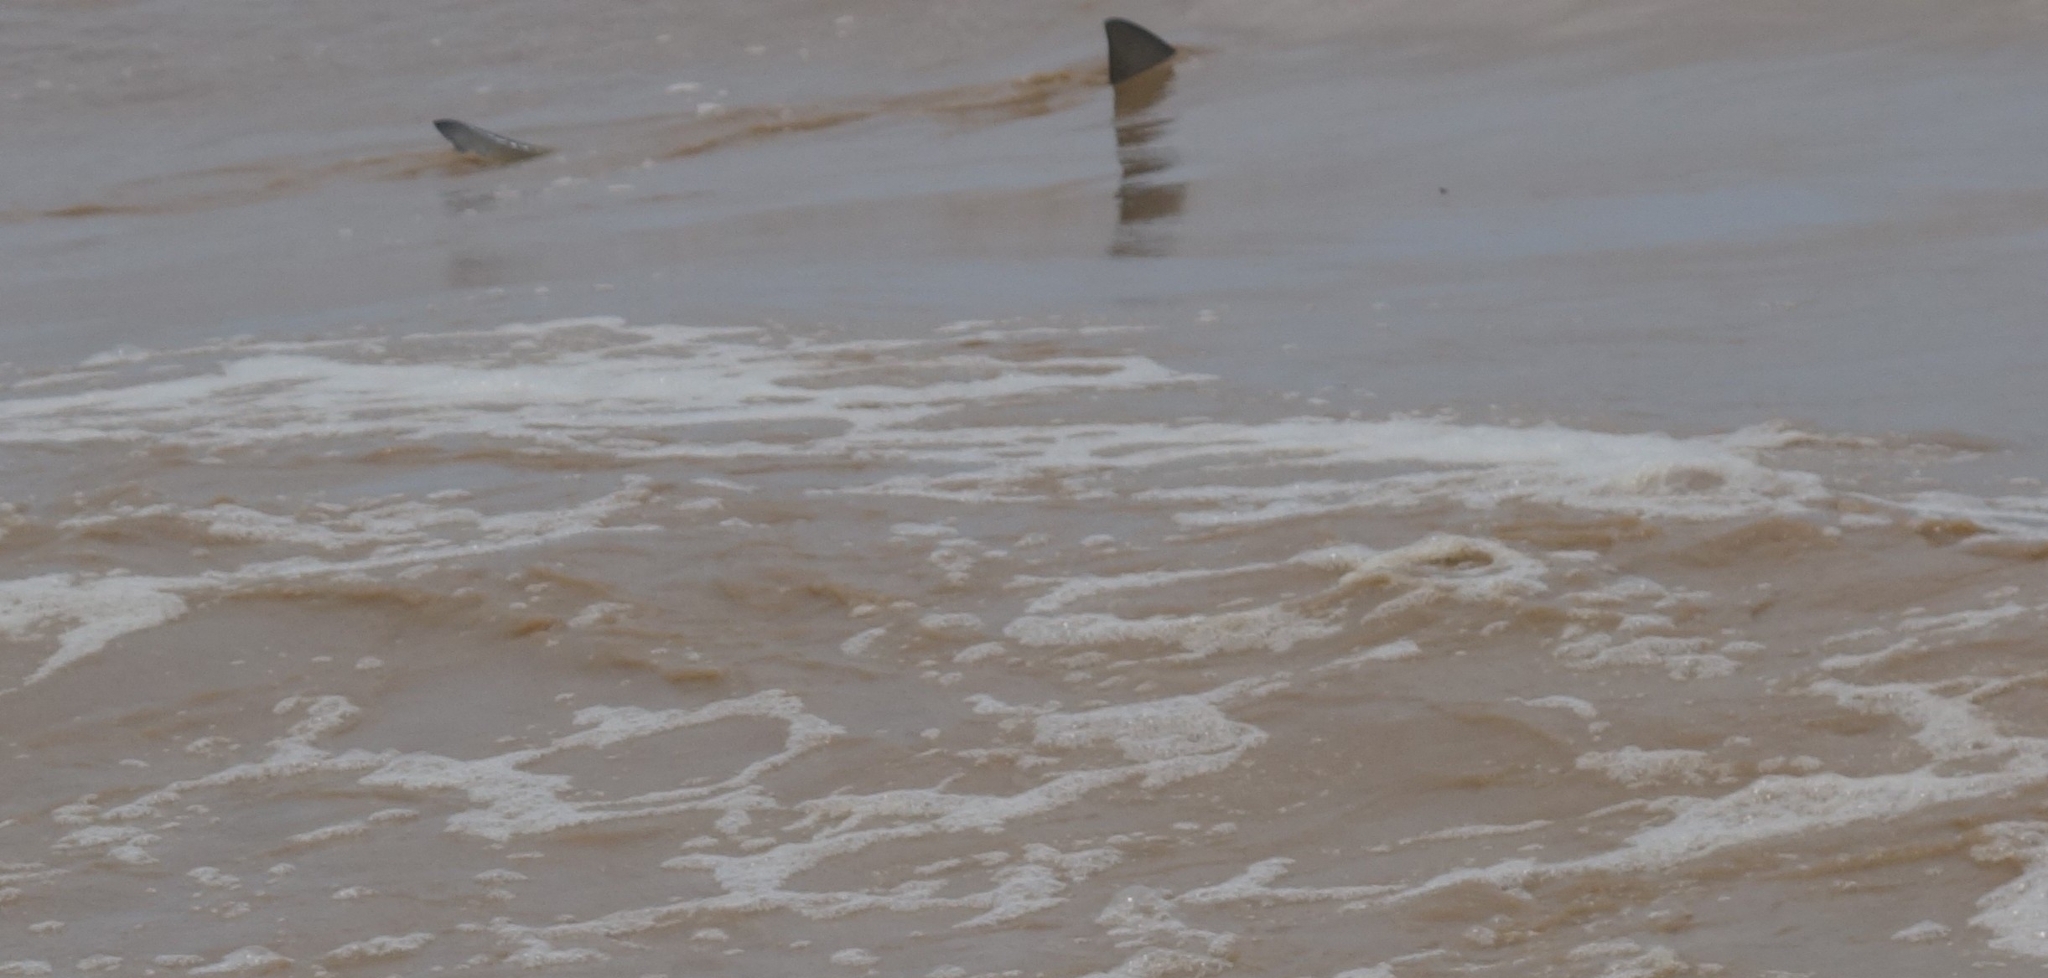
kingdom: Animalia
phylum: Chordata
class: Elasmobranchii
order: Carcharhiniformes
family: Carcharhinidae
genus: Carcharhinus
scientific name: Carcharhinus leucas
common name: Bull shark
